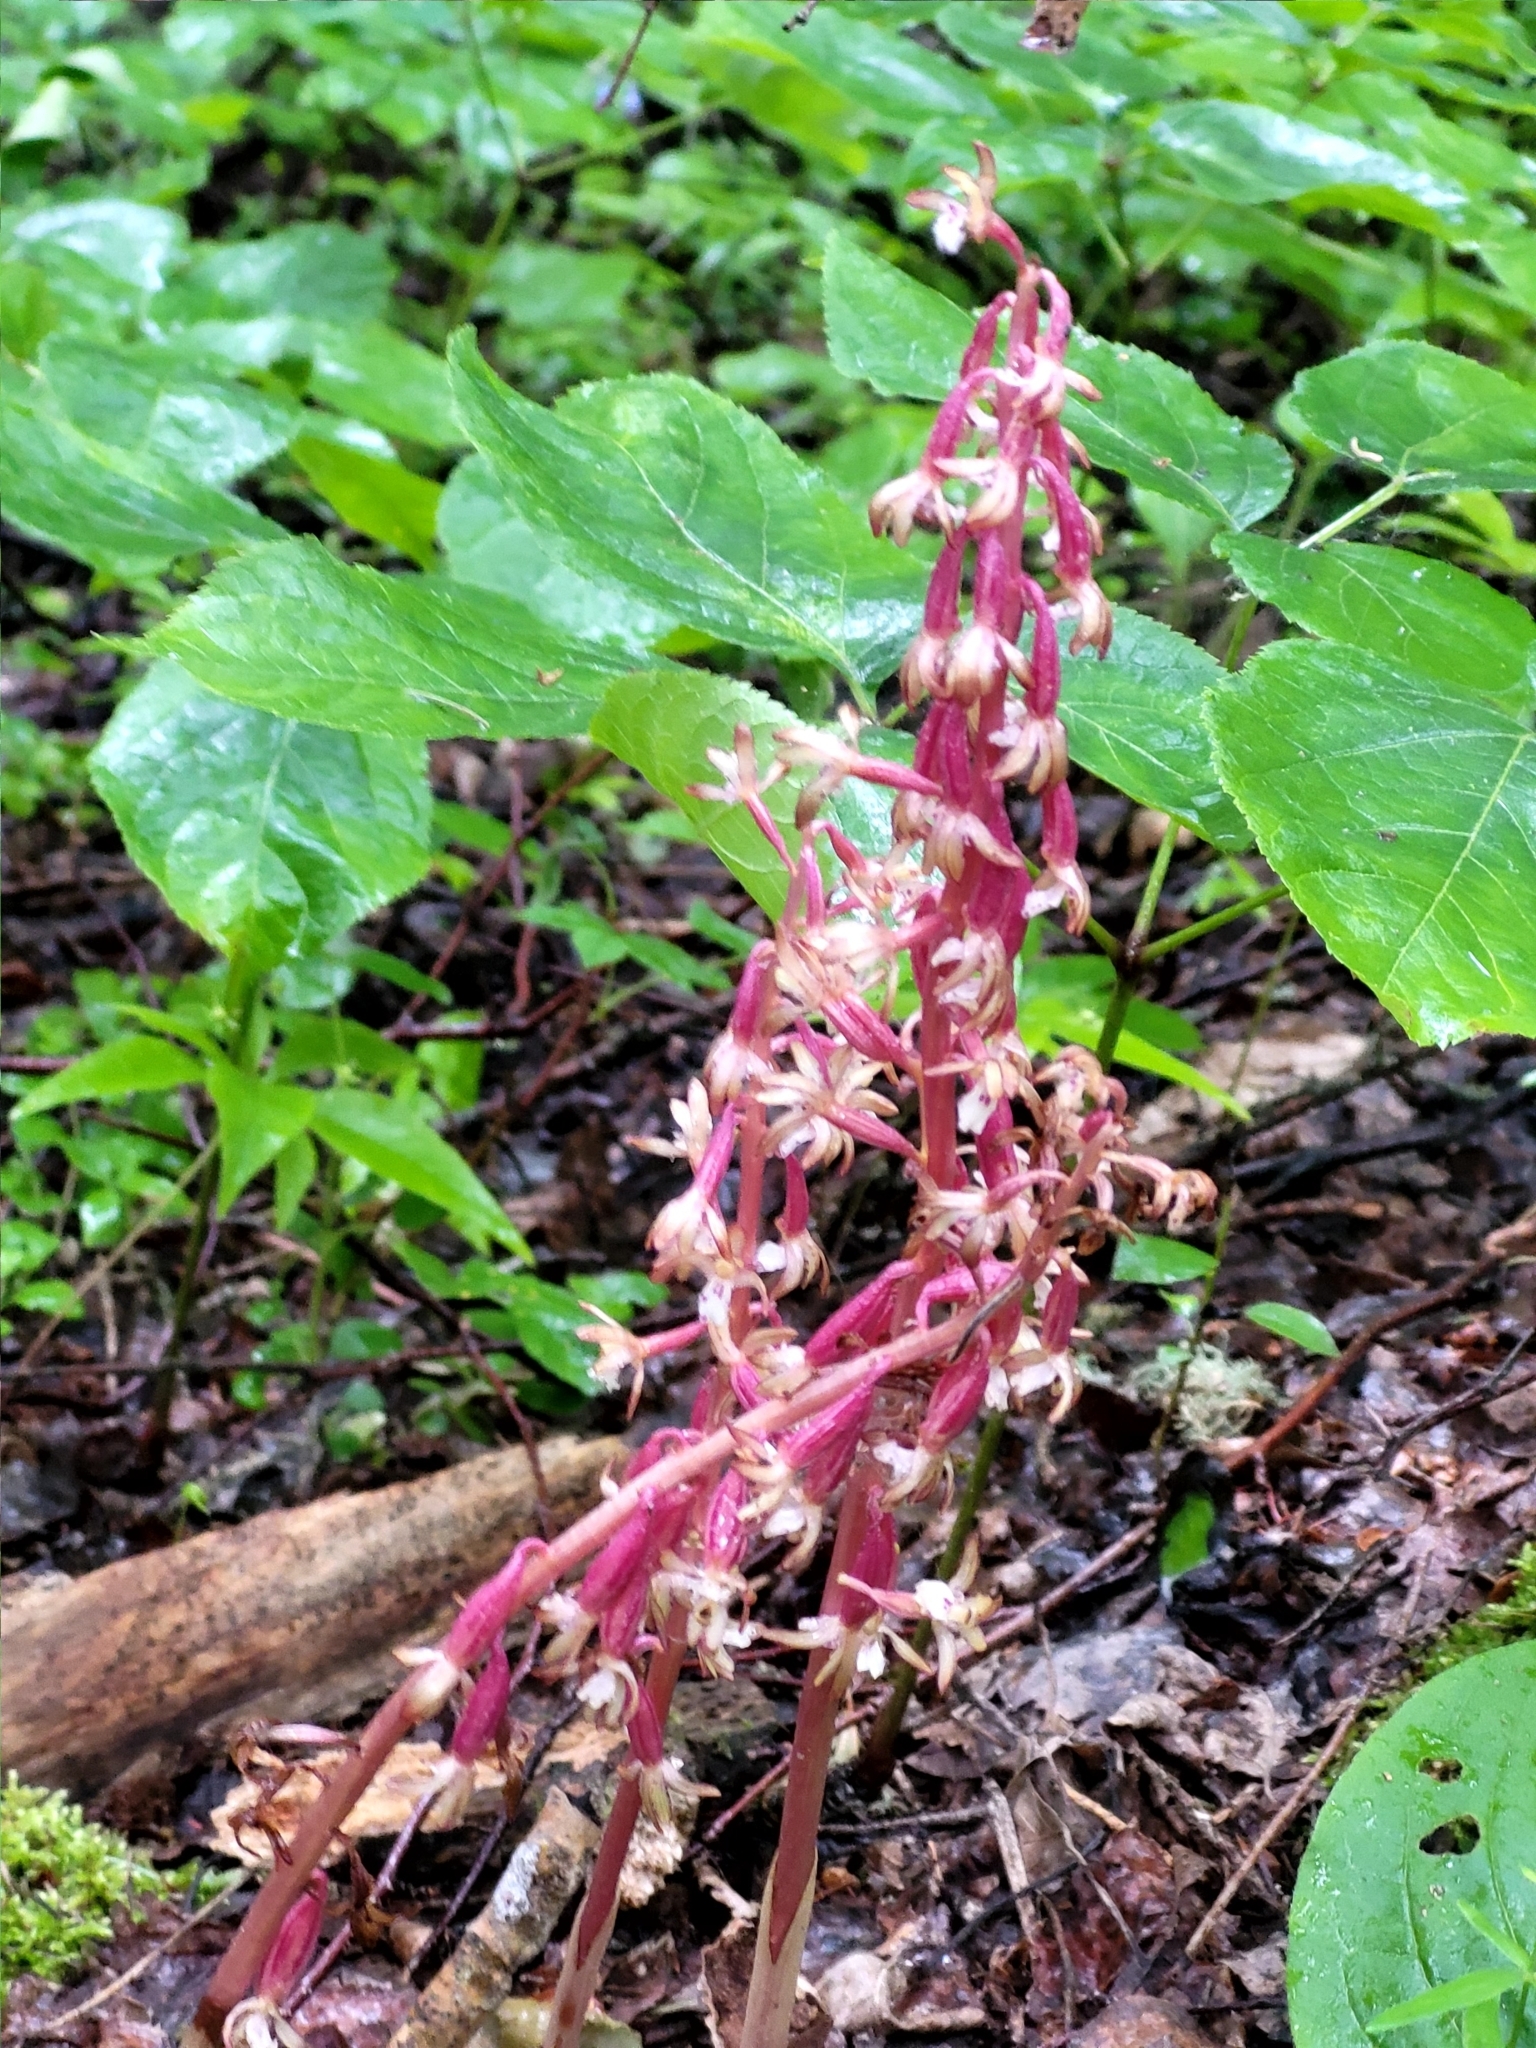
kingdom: Plantae
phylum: Tracheophyta
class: Liliopsida
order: Asparagales
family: Orchidaceae
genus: Corallorhiza
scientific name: Corallorhiza maculata
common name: Spotted coralroot
